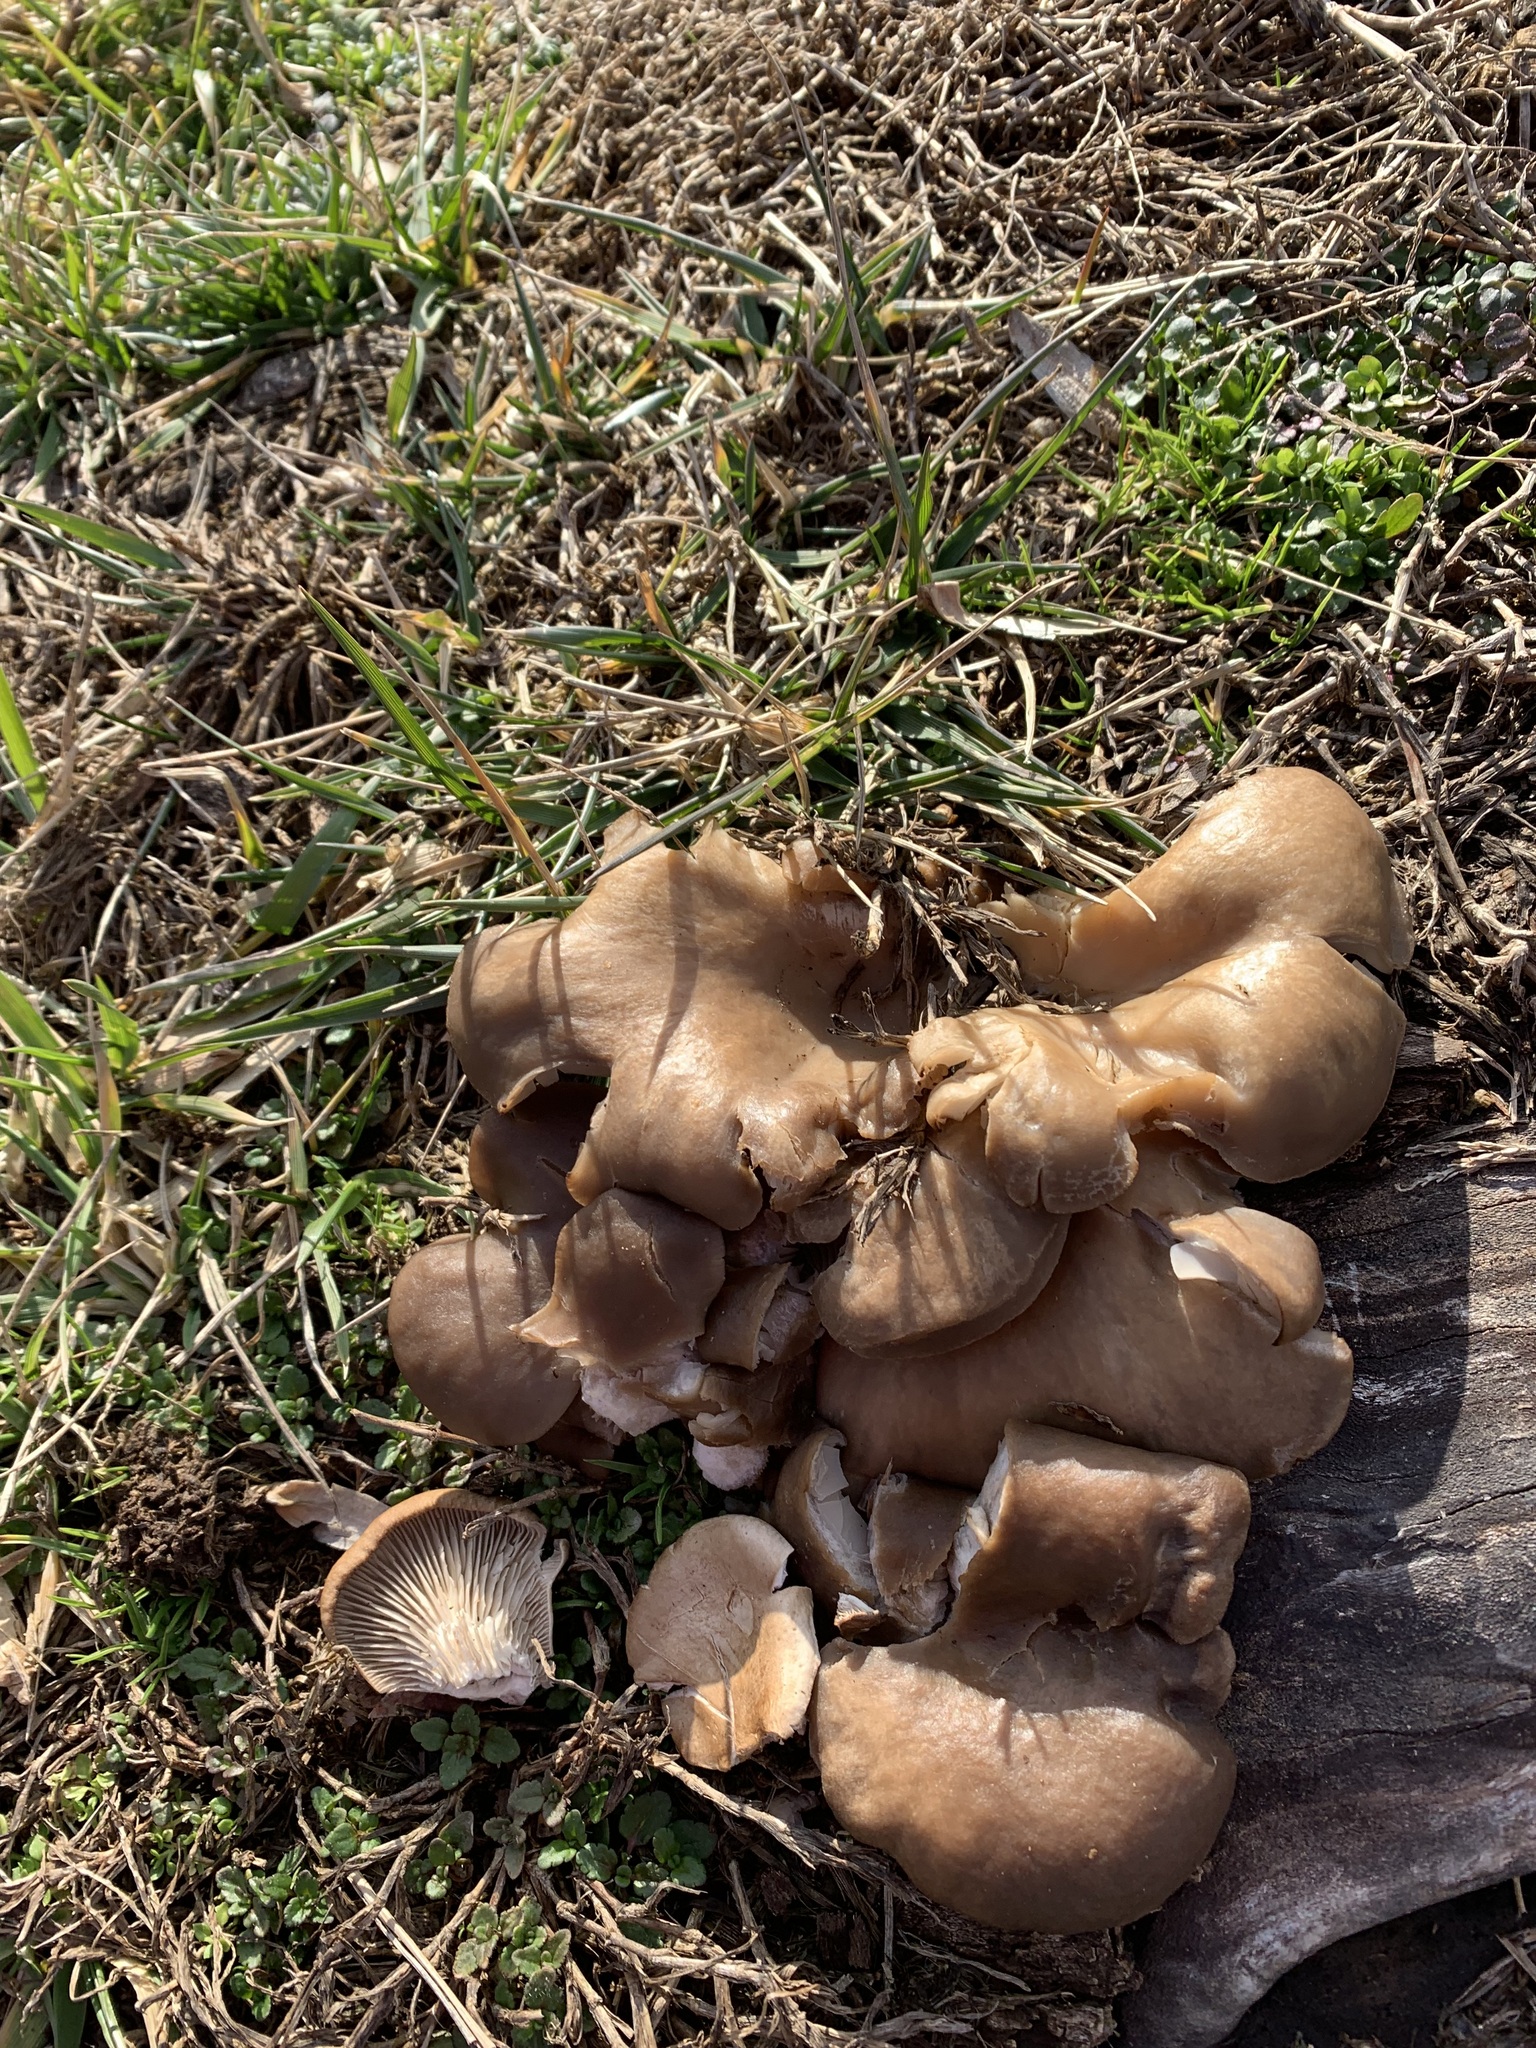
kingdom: Fungi
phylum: Basidiomycota
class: Agaricomycetes
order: Agaricales
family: Pleurotaceae
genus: Pleurotus
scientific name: Pleurotus ostreatus
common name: Oyster mushroom
